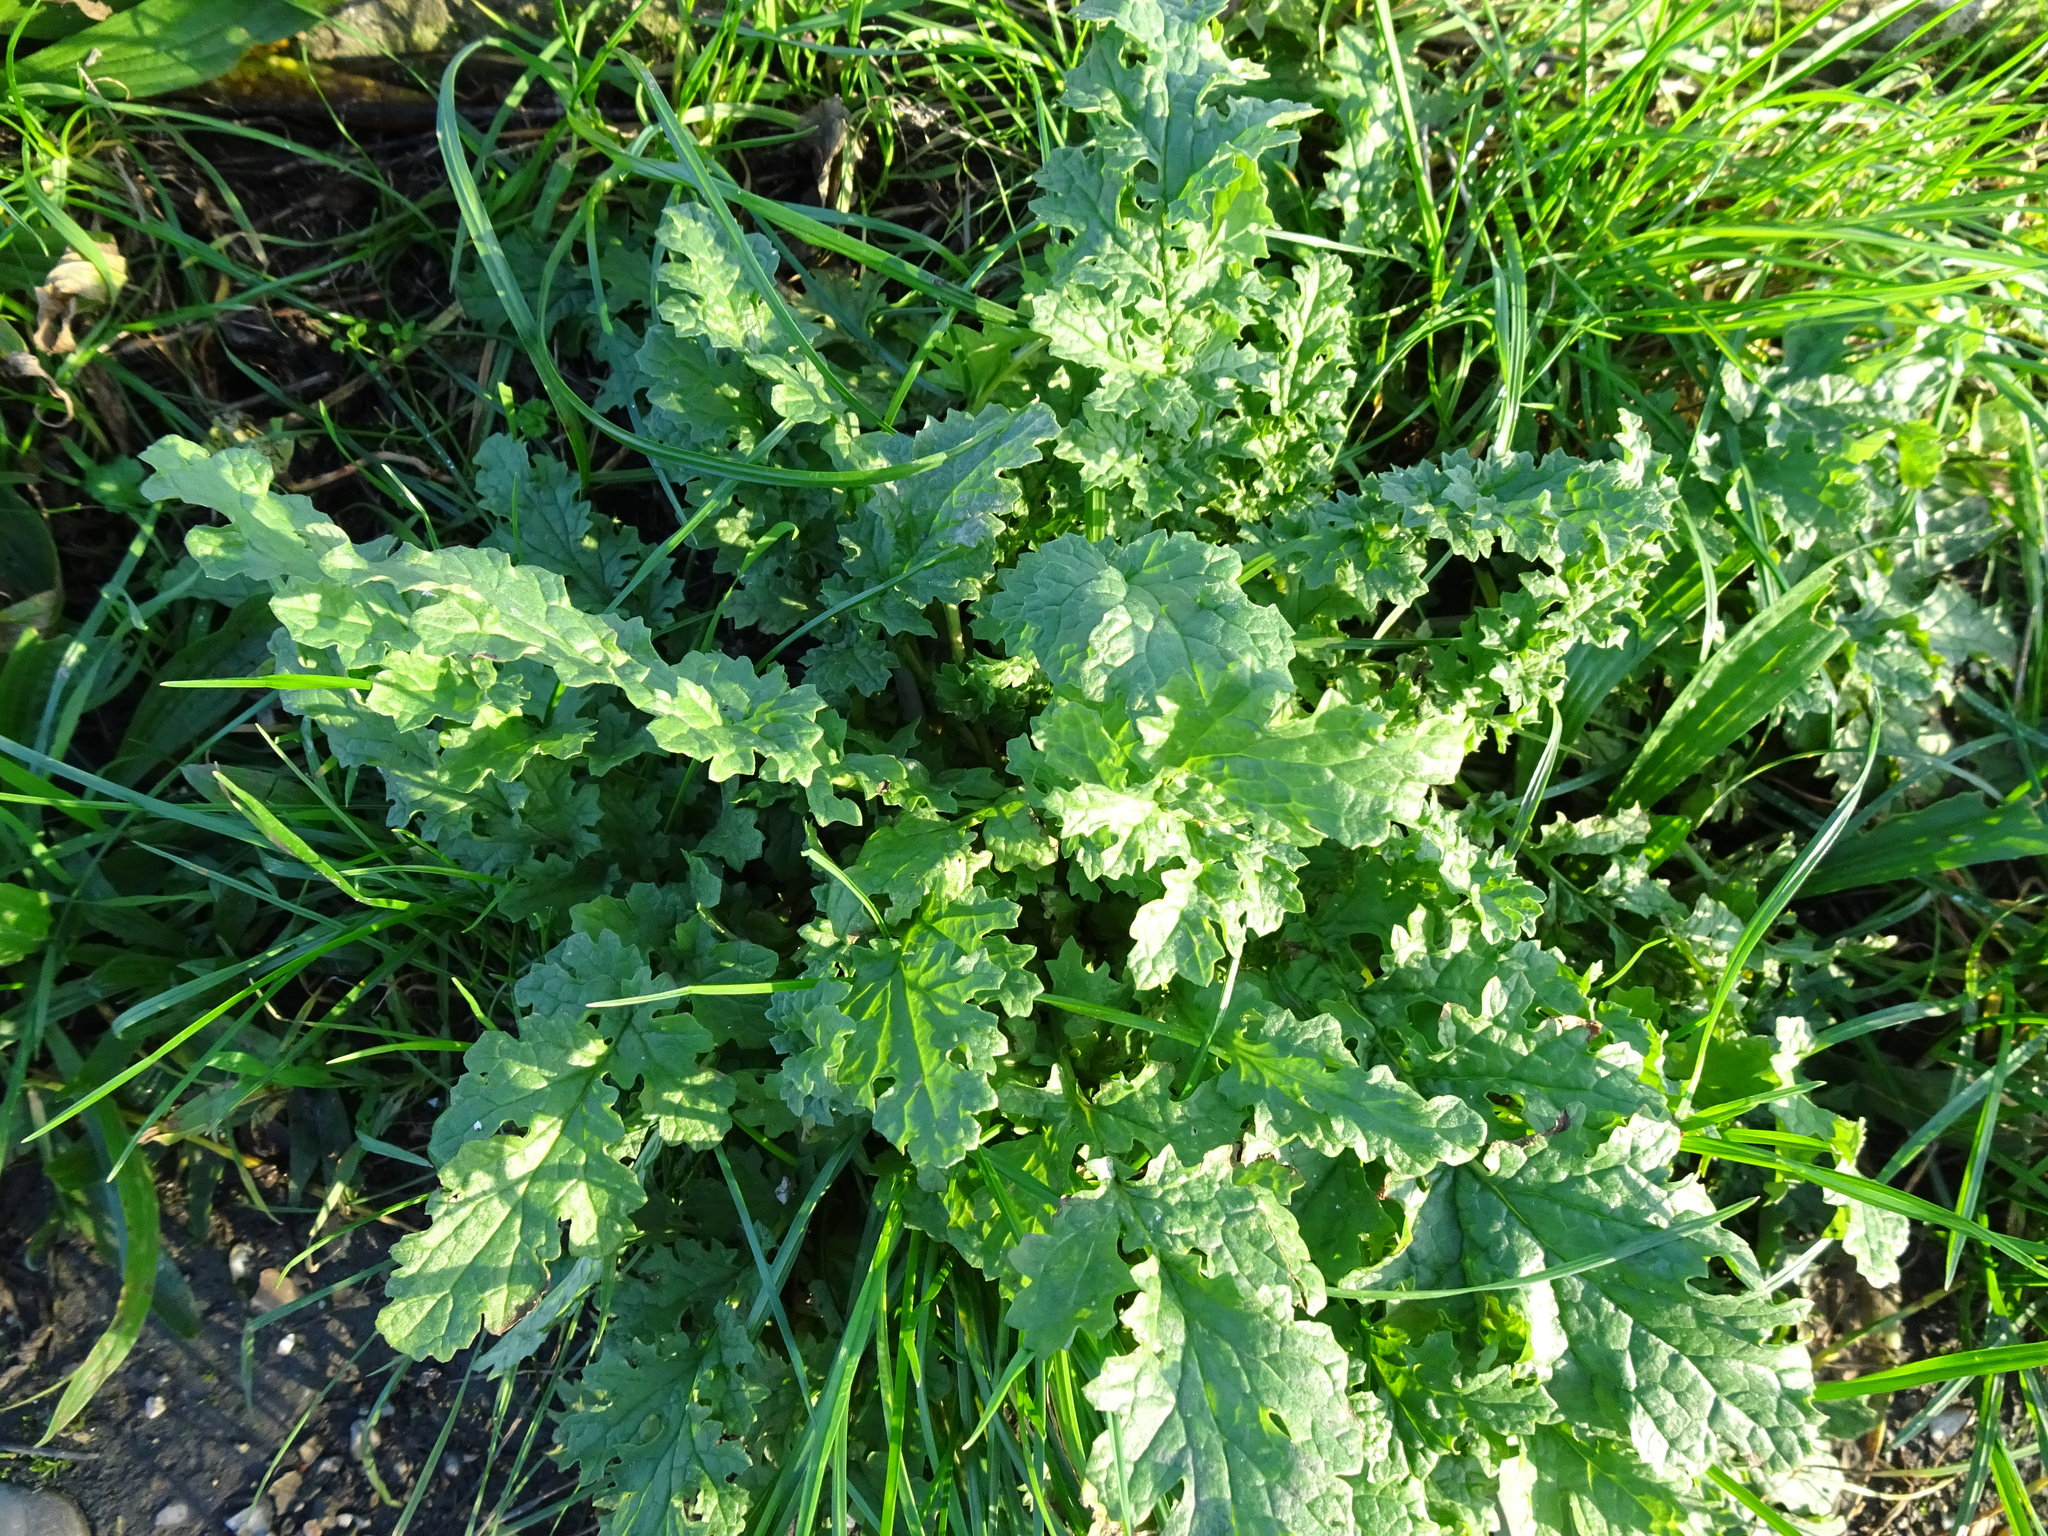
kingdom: Plantae
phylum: Tracheophyta
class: Magnoliopsida
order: Asterales
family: Asteraceae
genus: Jacobaea
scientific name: Jacobaea vulgaris
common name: Stinking willie
